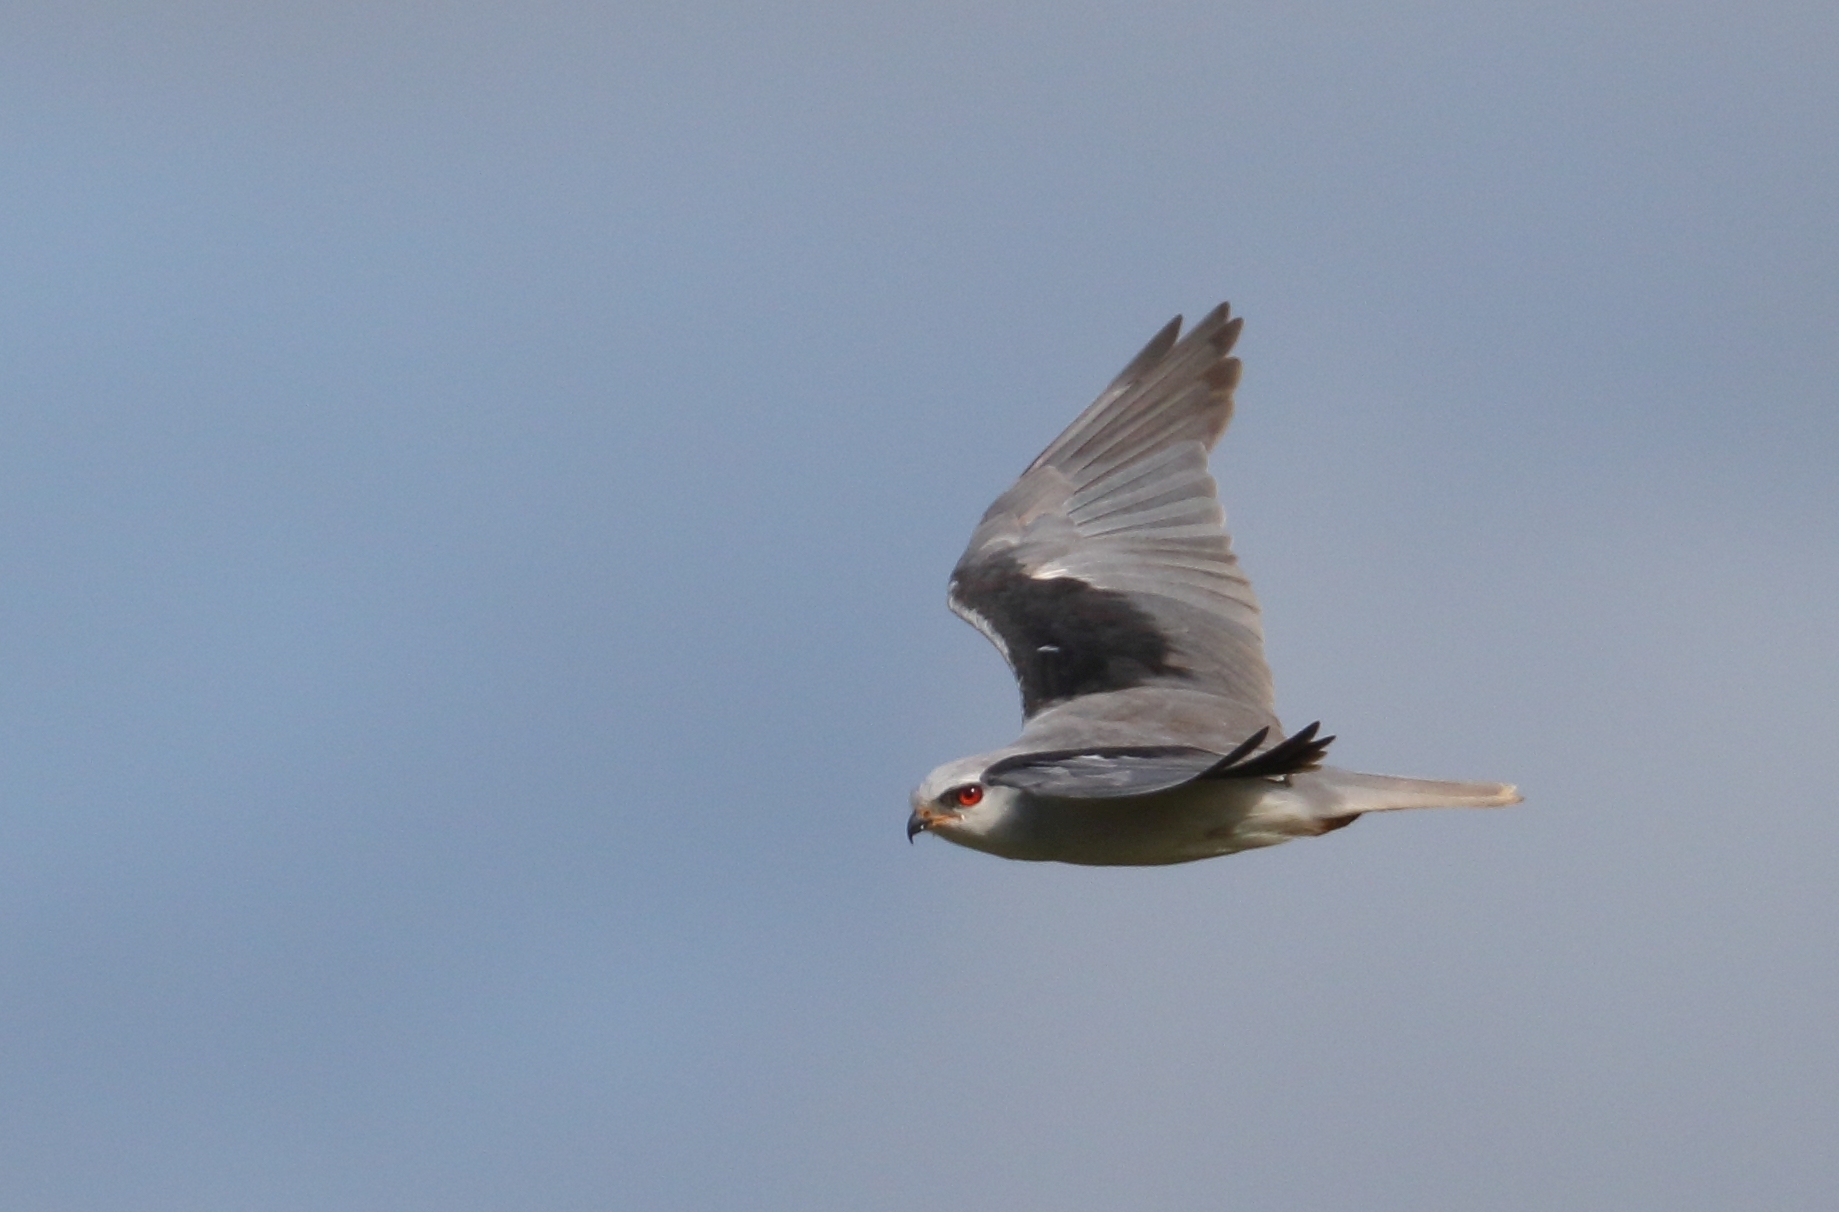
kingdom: Animalia
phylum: Chordata
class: Aves
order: Accipitriformes
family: Accipitridae
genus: Elanus
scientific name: Elanus caeruleus
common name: Black-winged kite
